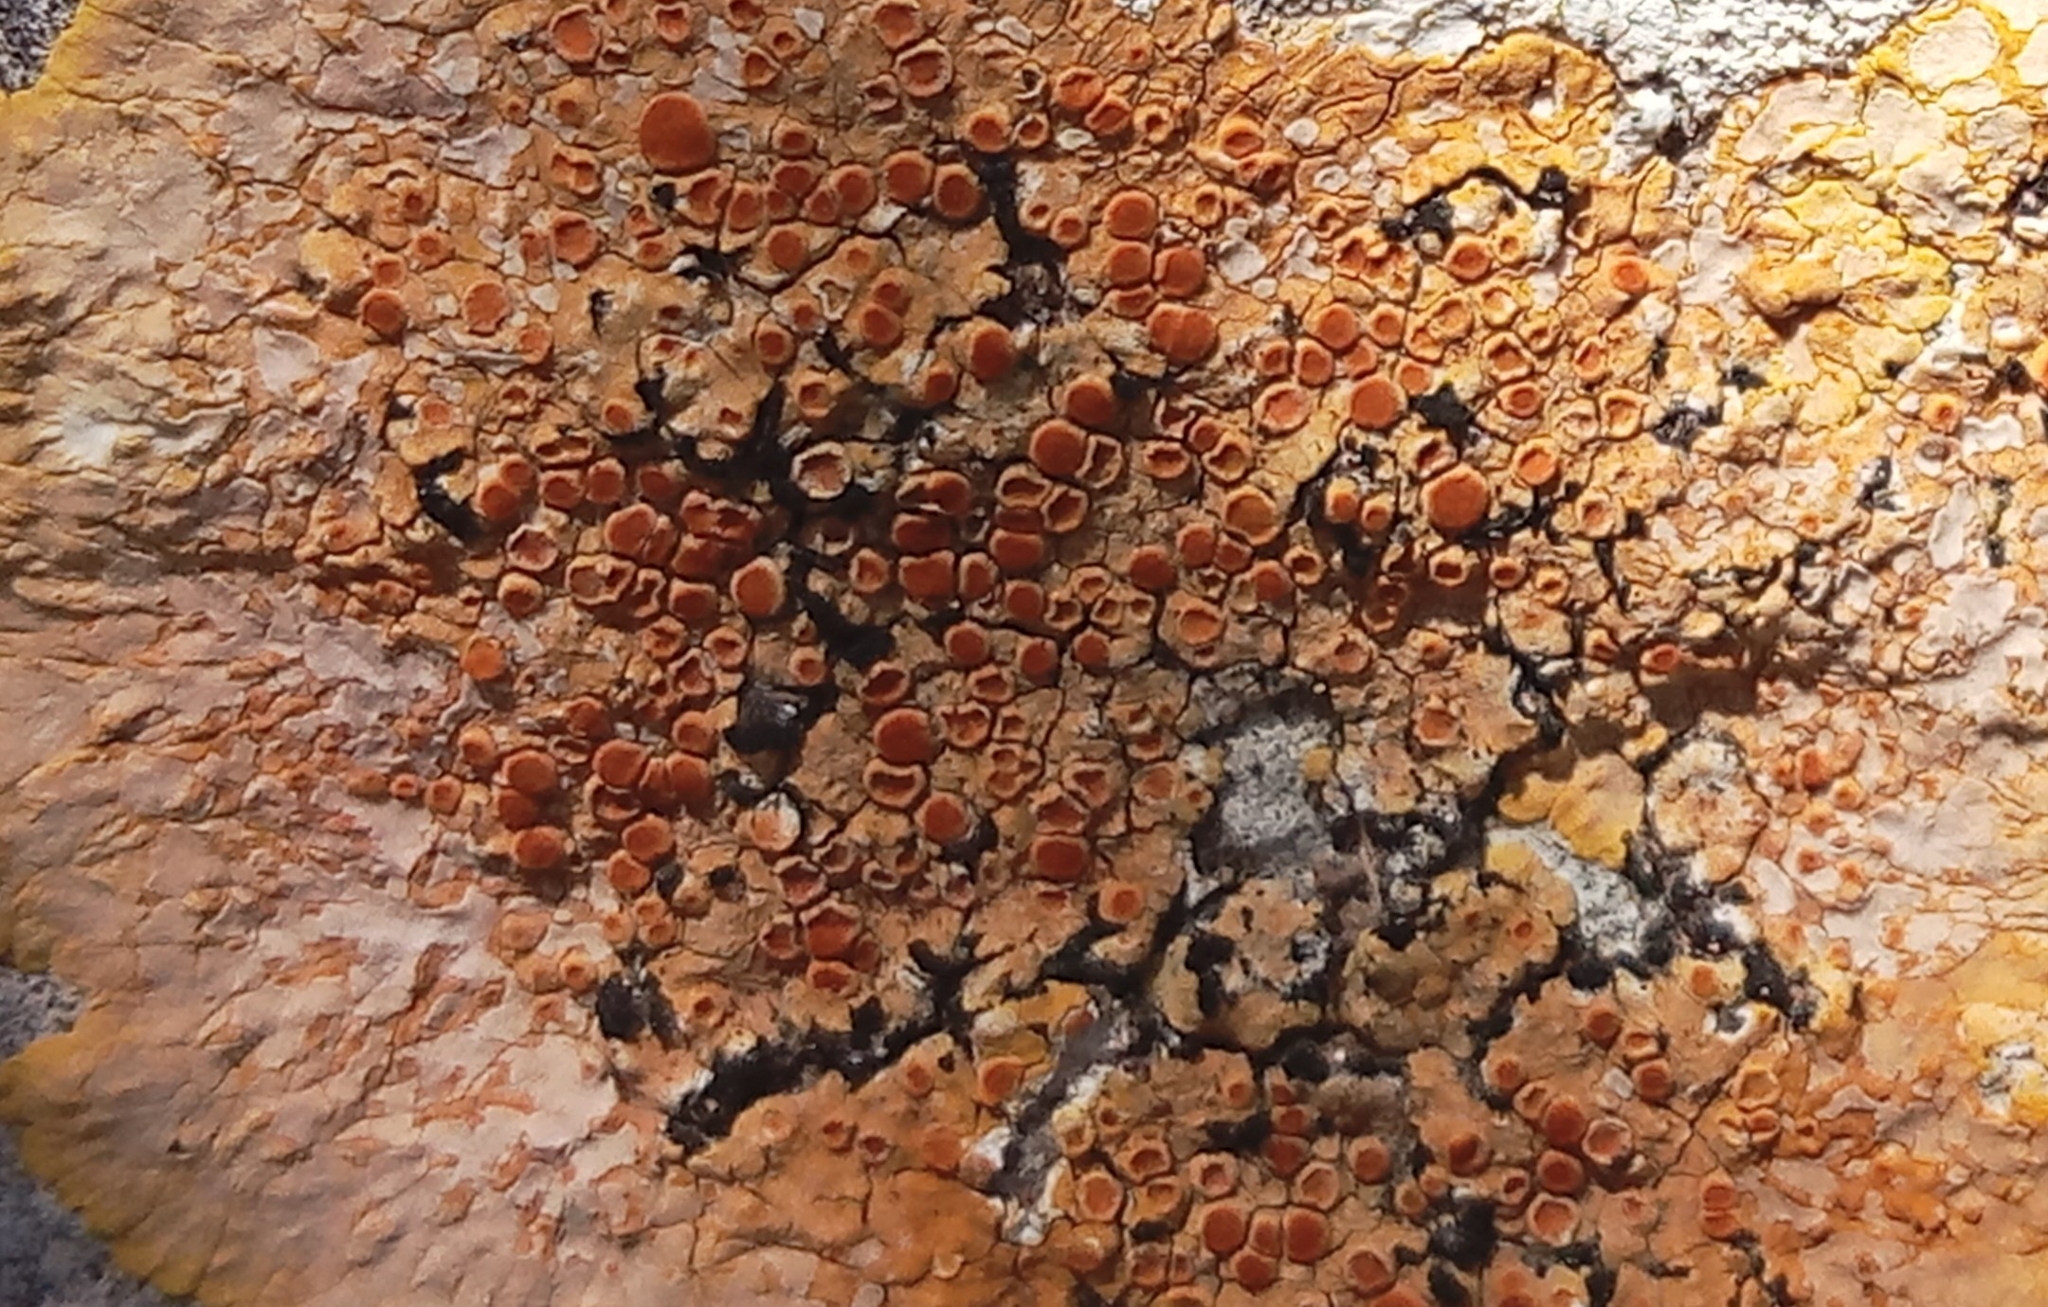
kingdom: Fungi
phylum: Ascomycota
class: Lecanoromycetes
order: Teloschistales
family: Teloschistaceae
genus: Caloplaca
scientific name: Caloplaca eugyra
